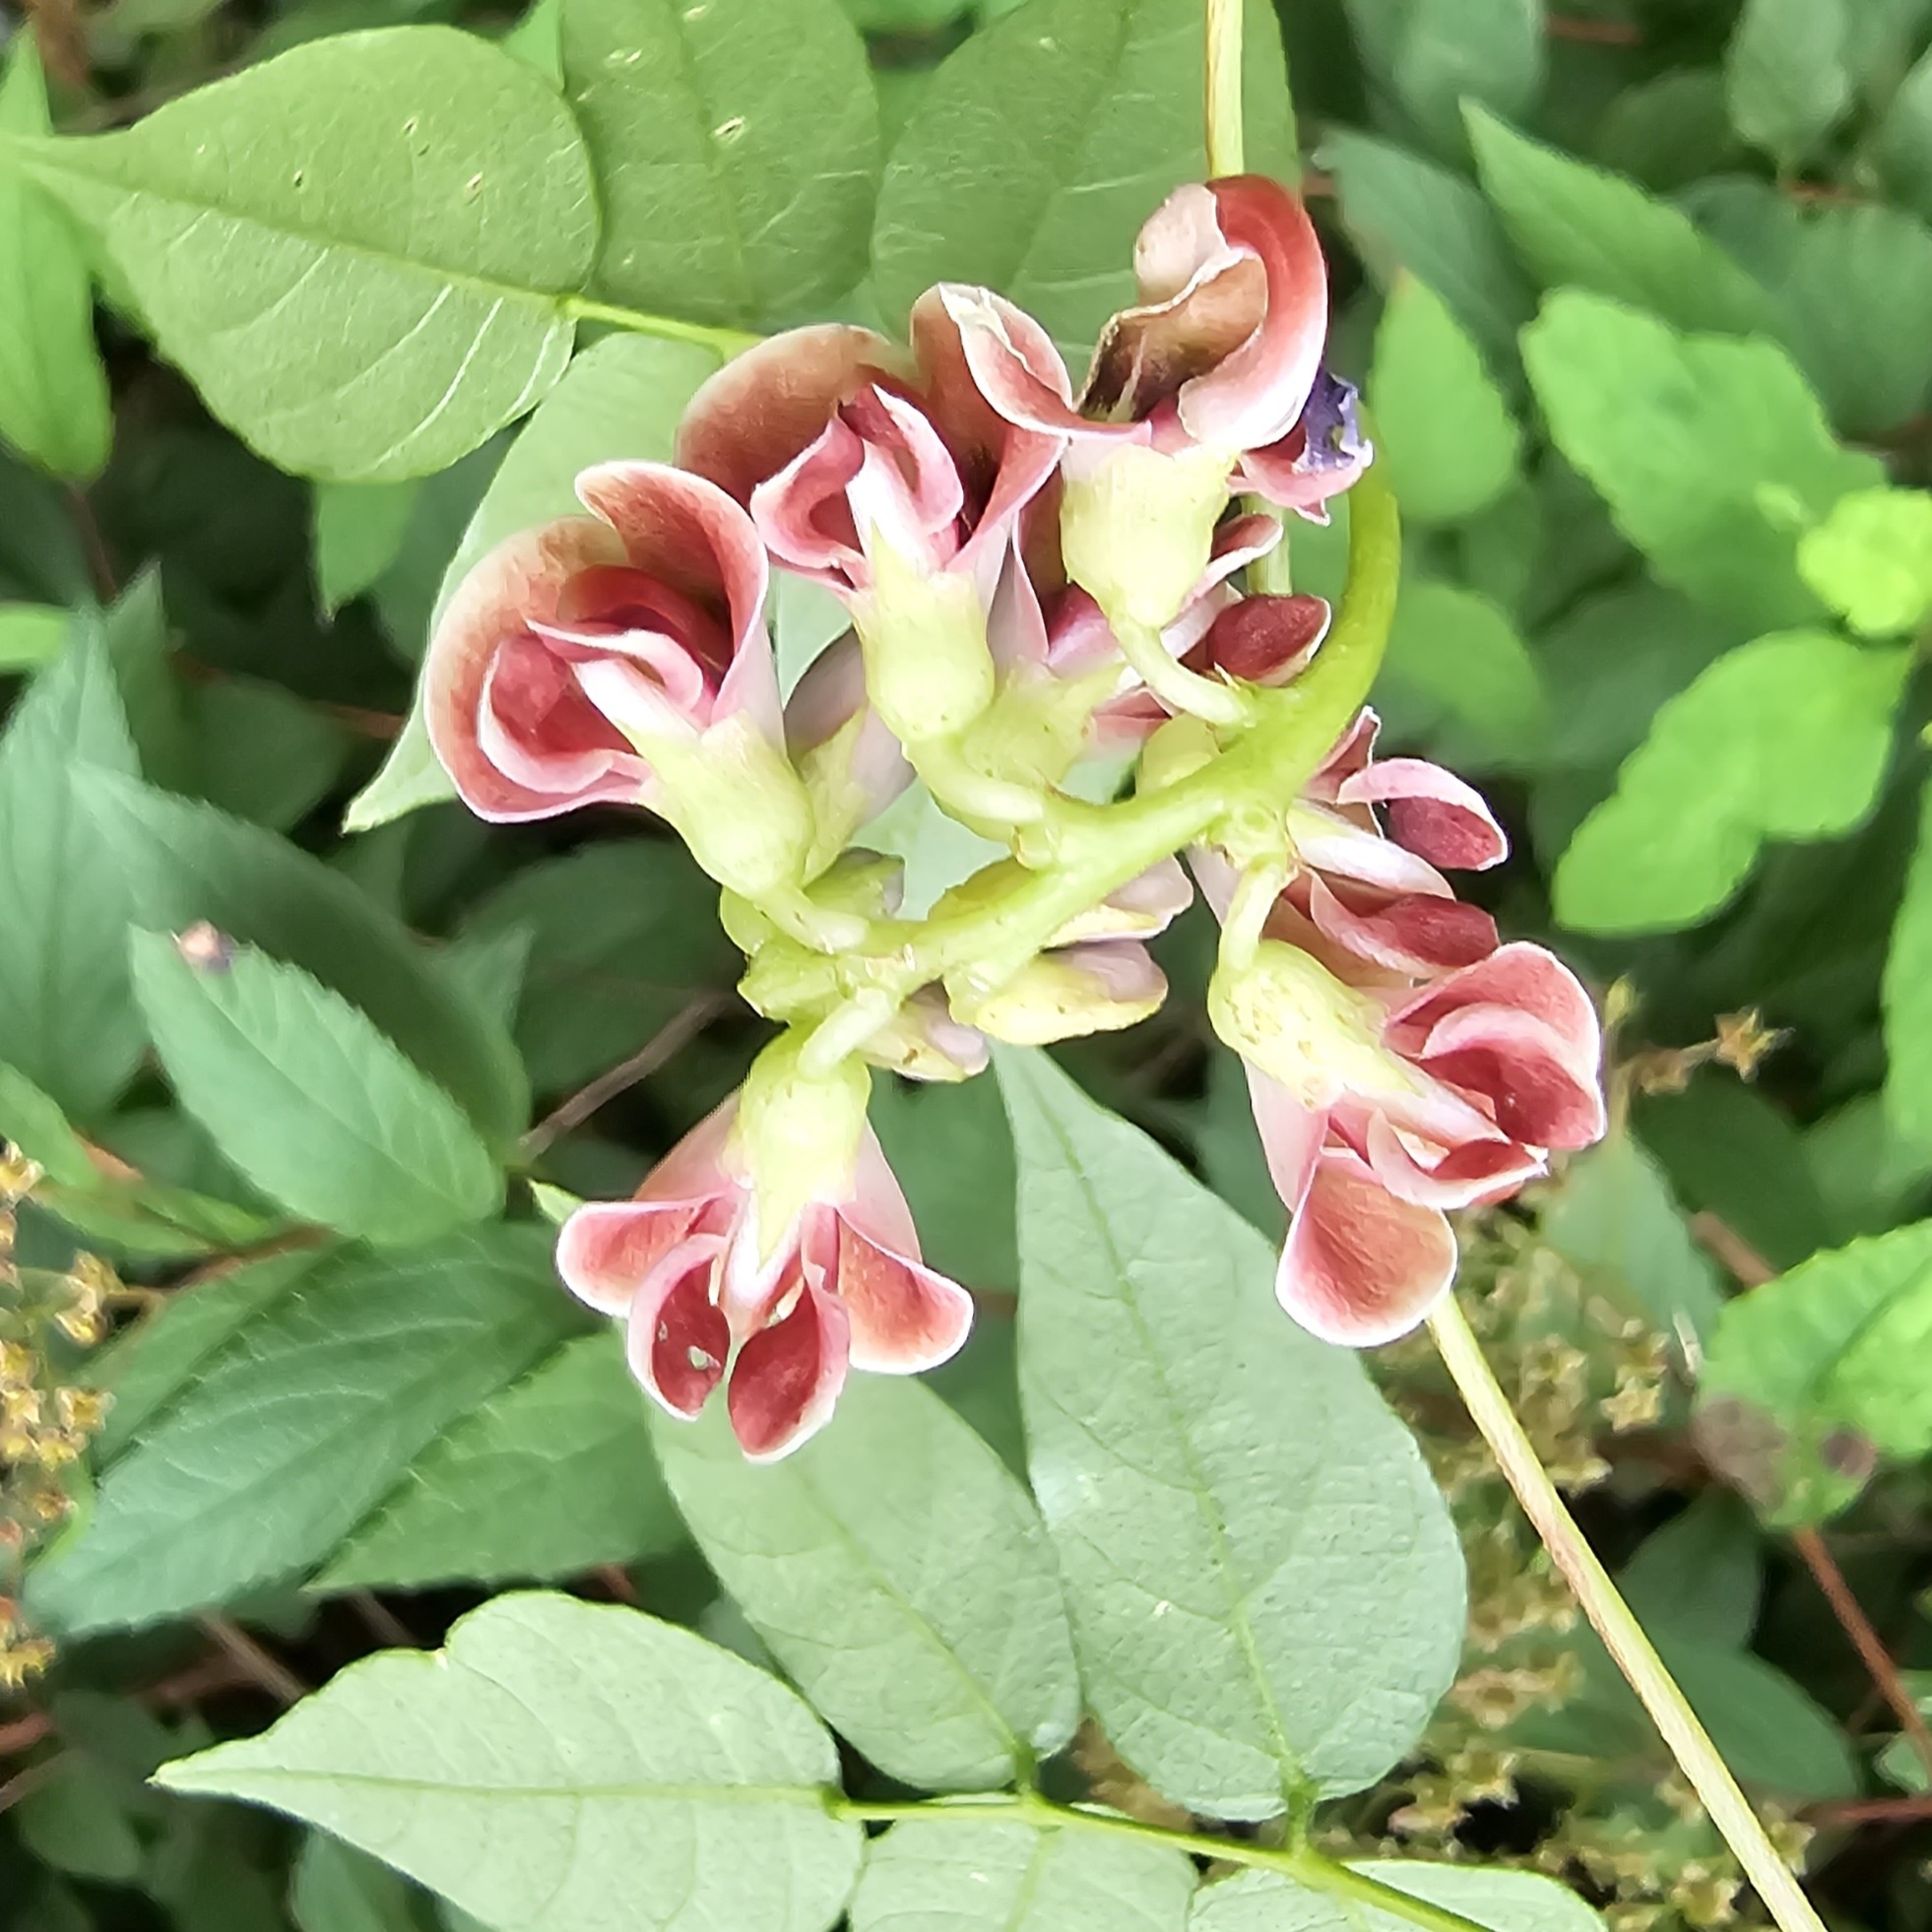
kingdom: Plantae
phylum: Tracheophyta
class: Magnoliopsida
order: Fabales
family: Fabaceae
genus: Apios
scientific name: Apios americana
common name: American potato-bean
